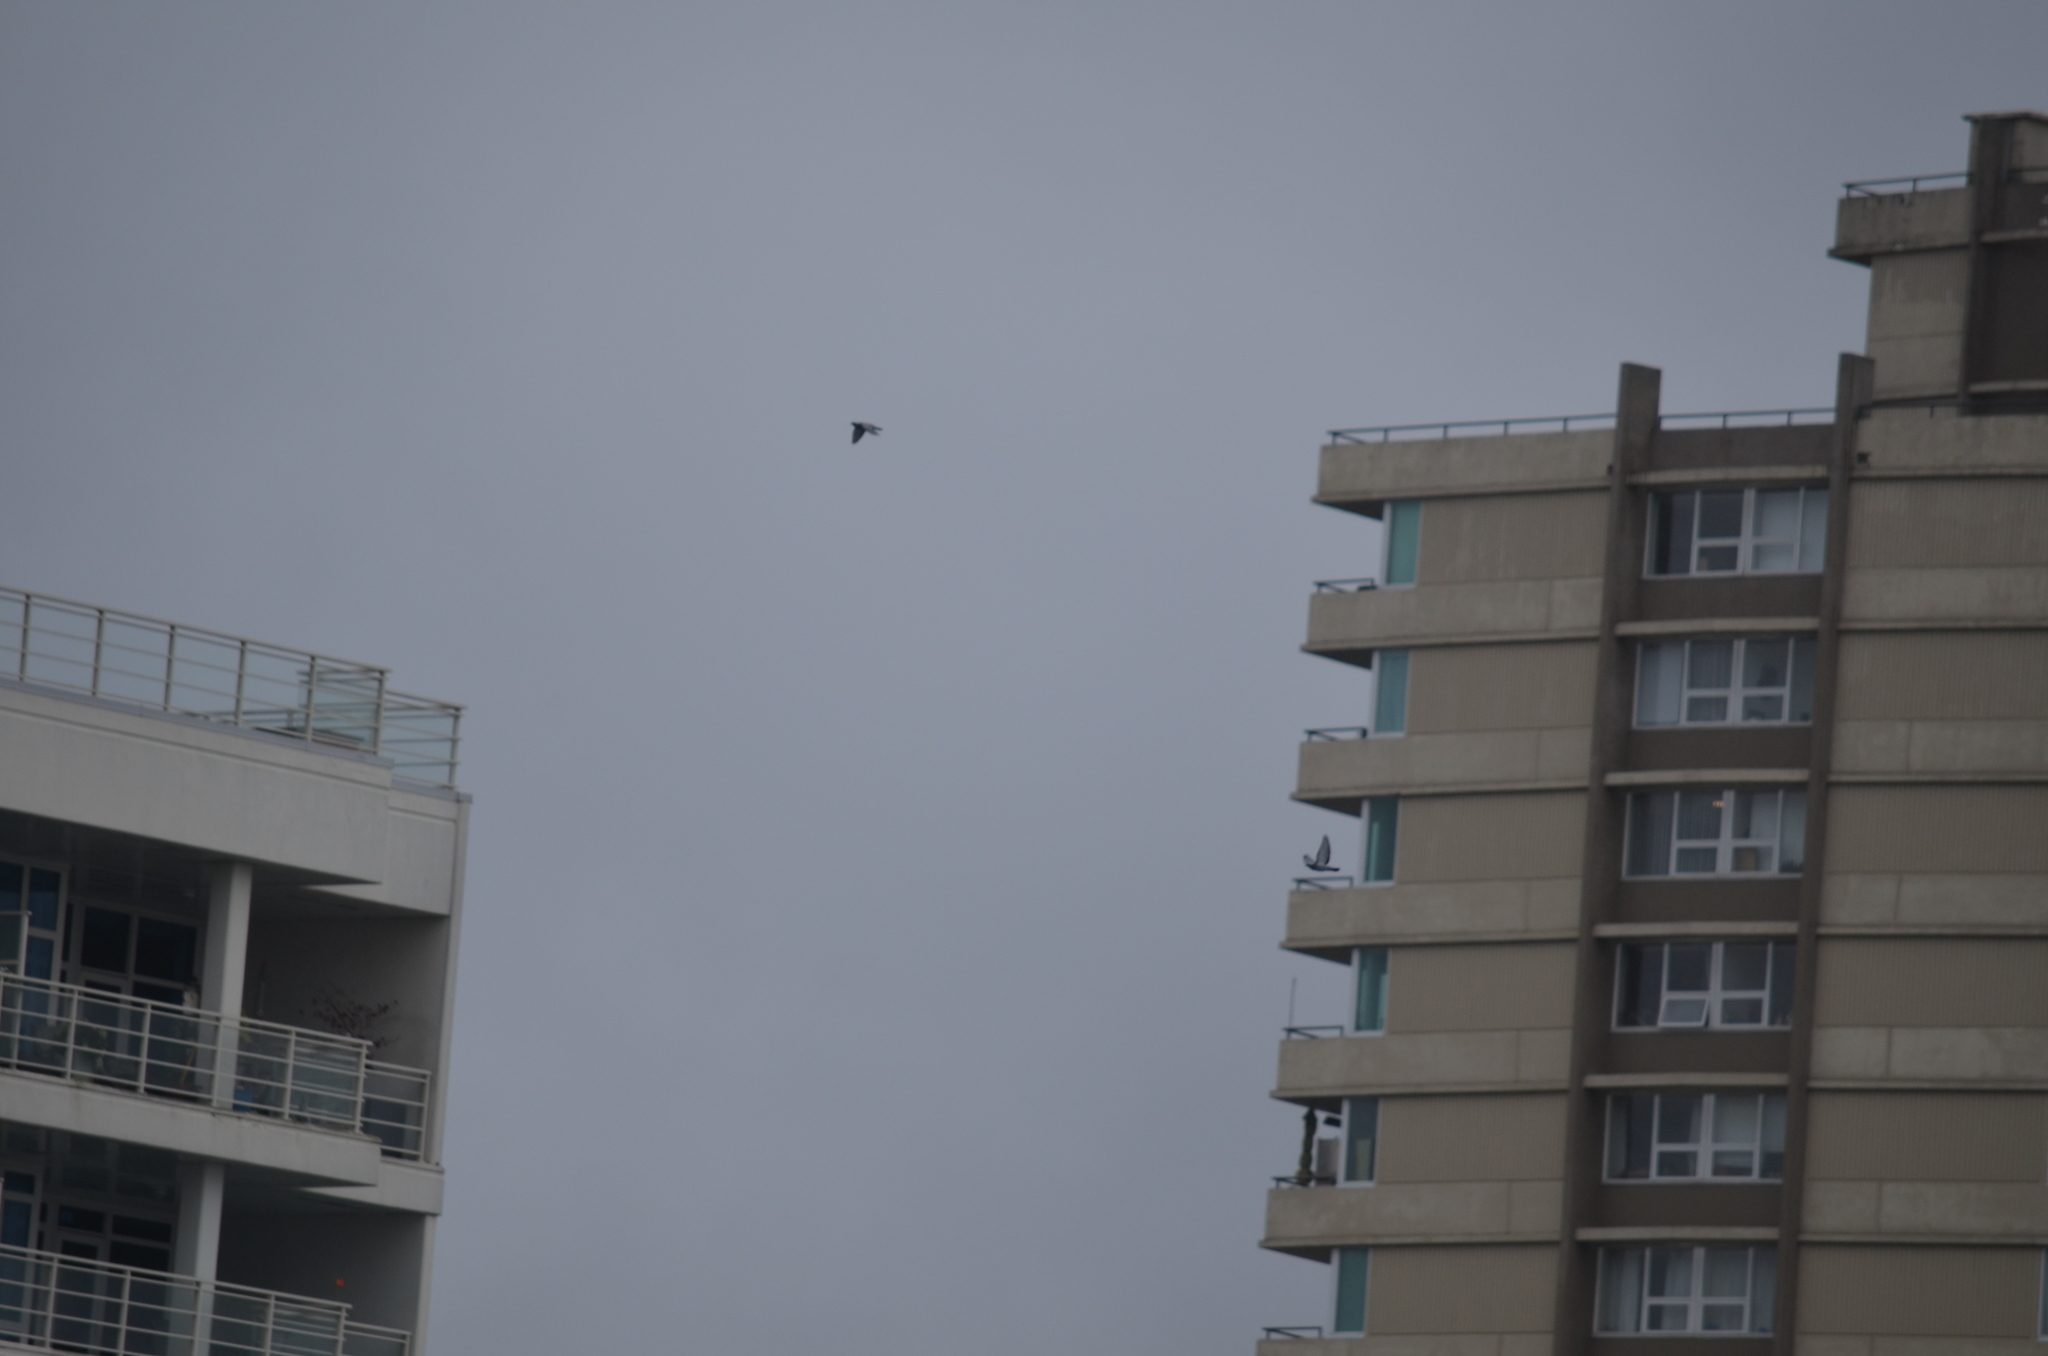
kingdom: Animalia
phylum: Chordata
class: Aves
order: Columbiformes
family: Columbidae
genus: Columba
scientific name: Columba livia
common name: Rock pigeon
